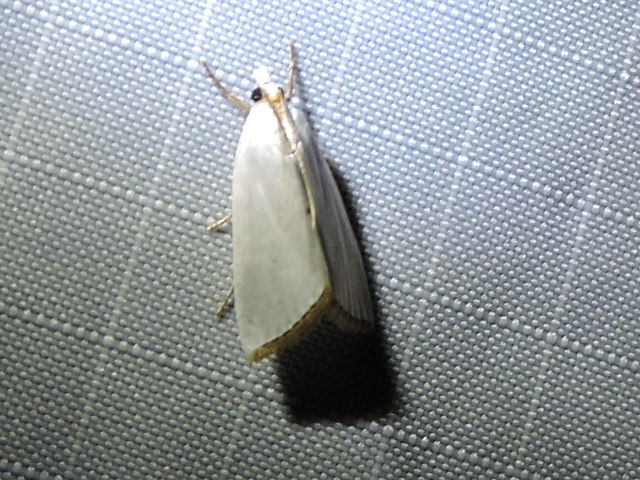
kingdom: Animalia
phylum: Arthropoda
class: Insecta
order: Lepidoptera
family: Crambidae
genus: Argyria
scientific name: Argyria nivalis
